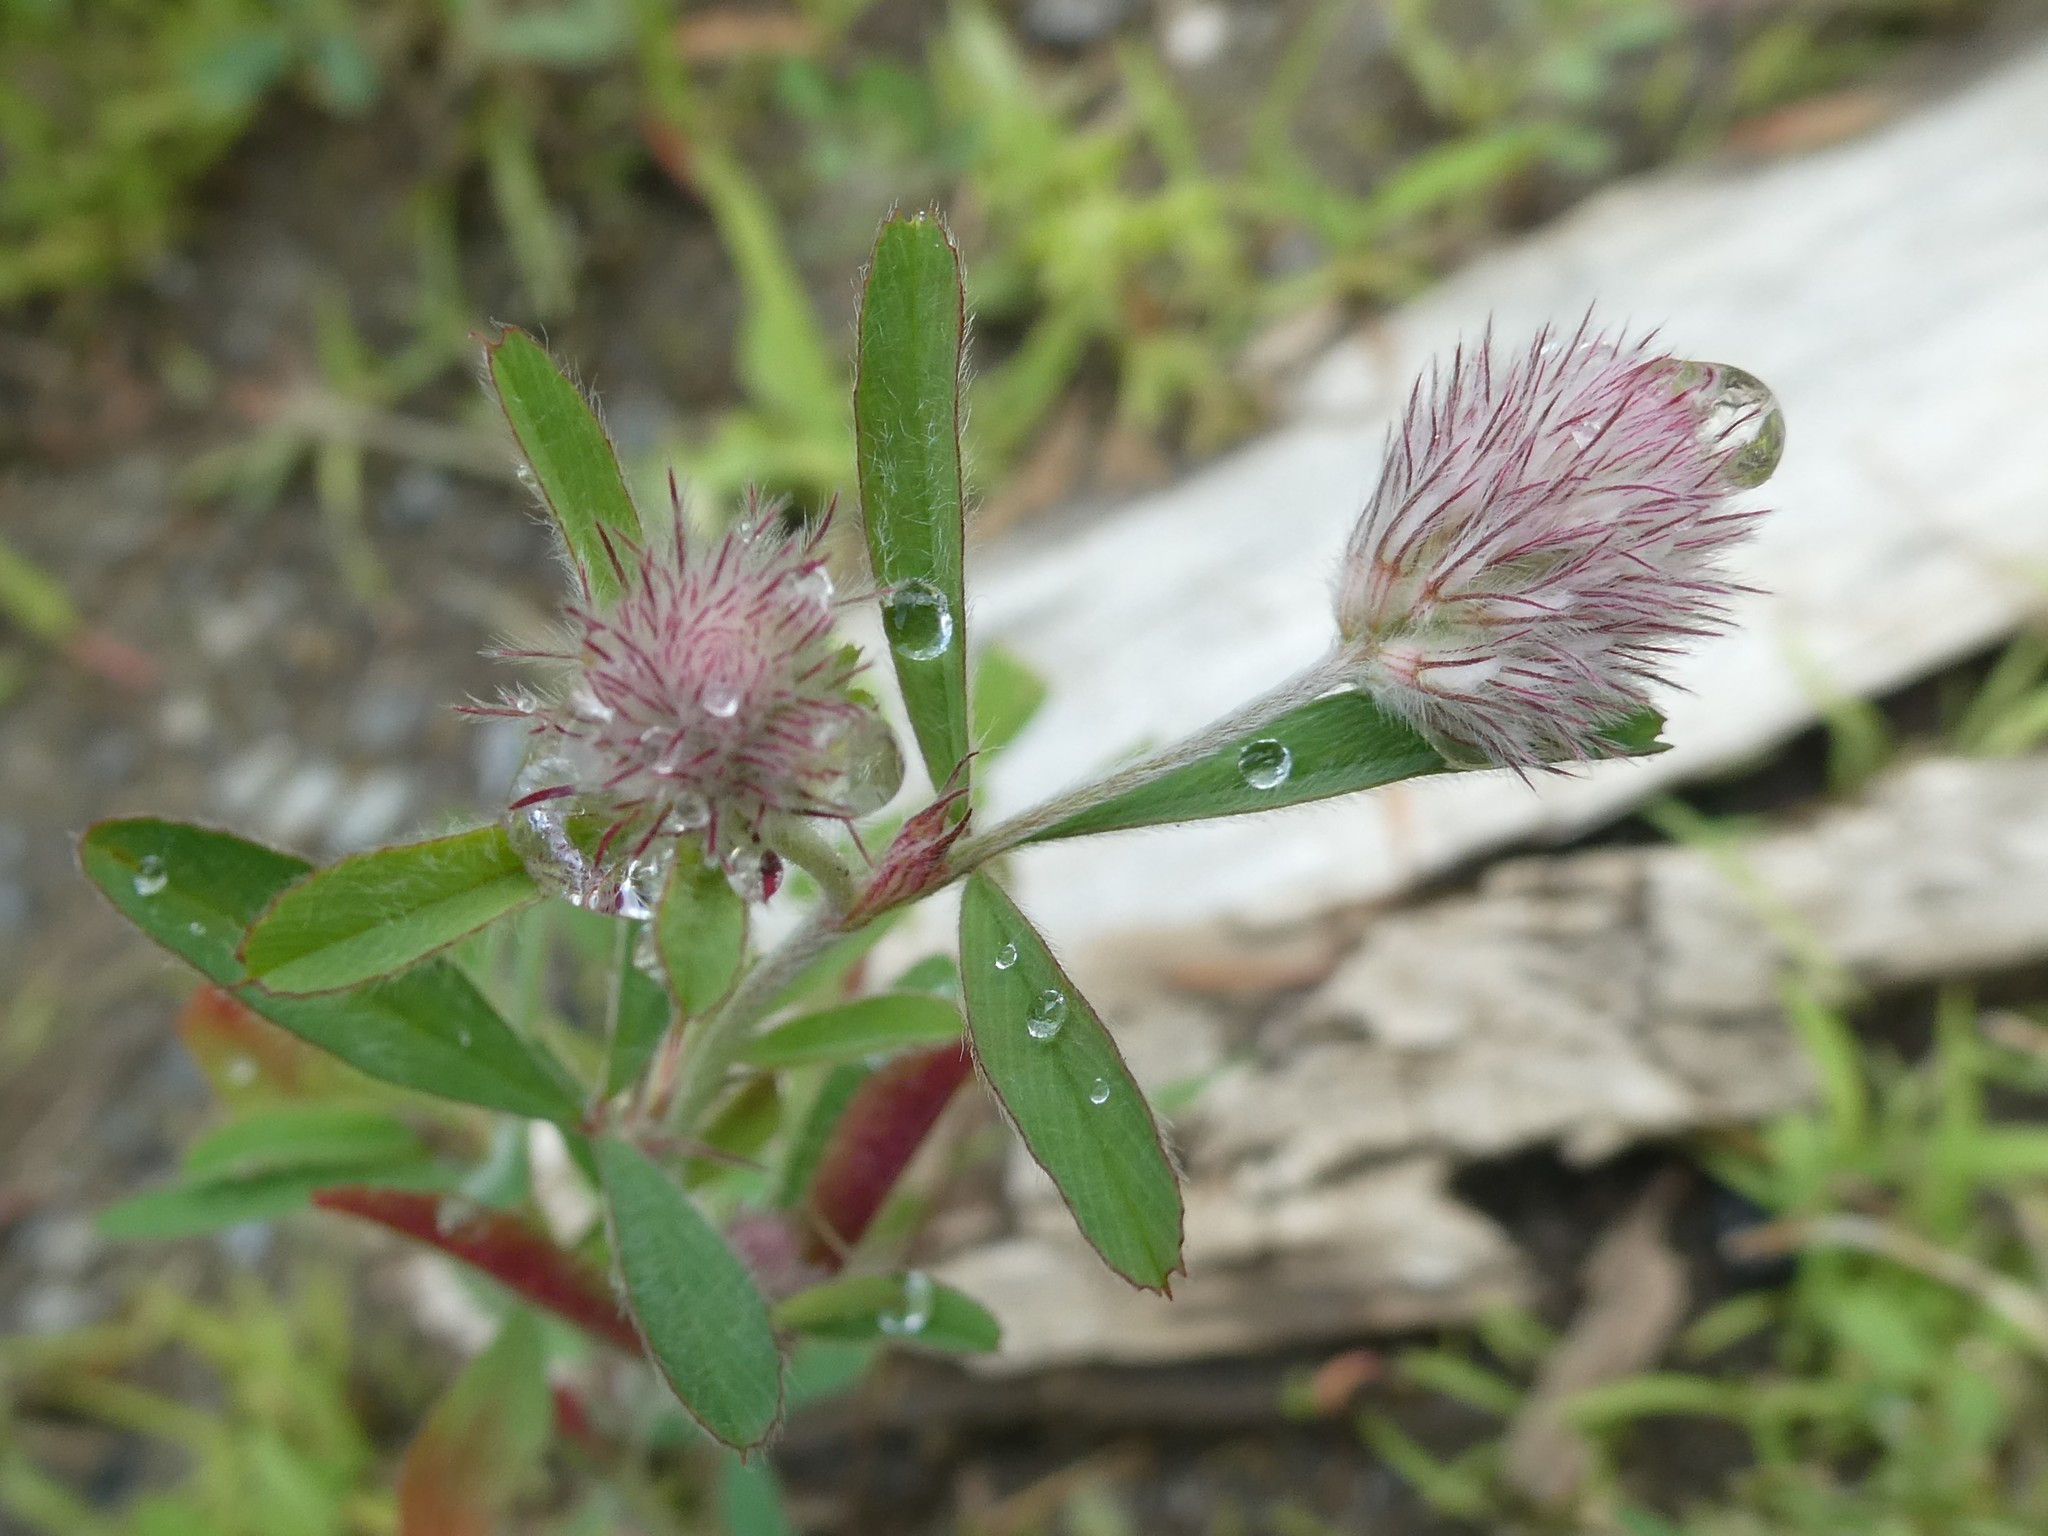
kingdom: Plantae
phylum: Tracheophyta
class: Magnoliopsida
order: Fabales
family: Fabaceae
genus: Trifolium
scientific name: Trifolium arvense
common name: Hare's-foot clover
